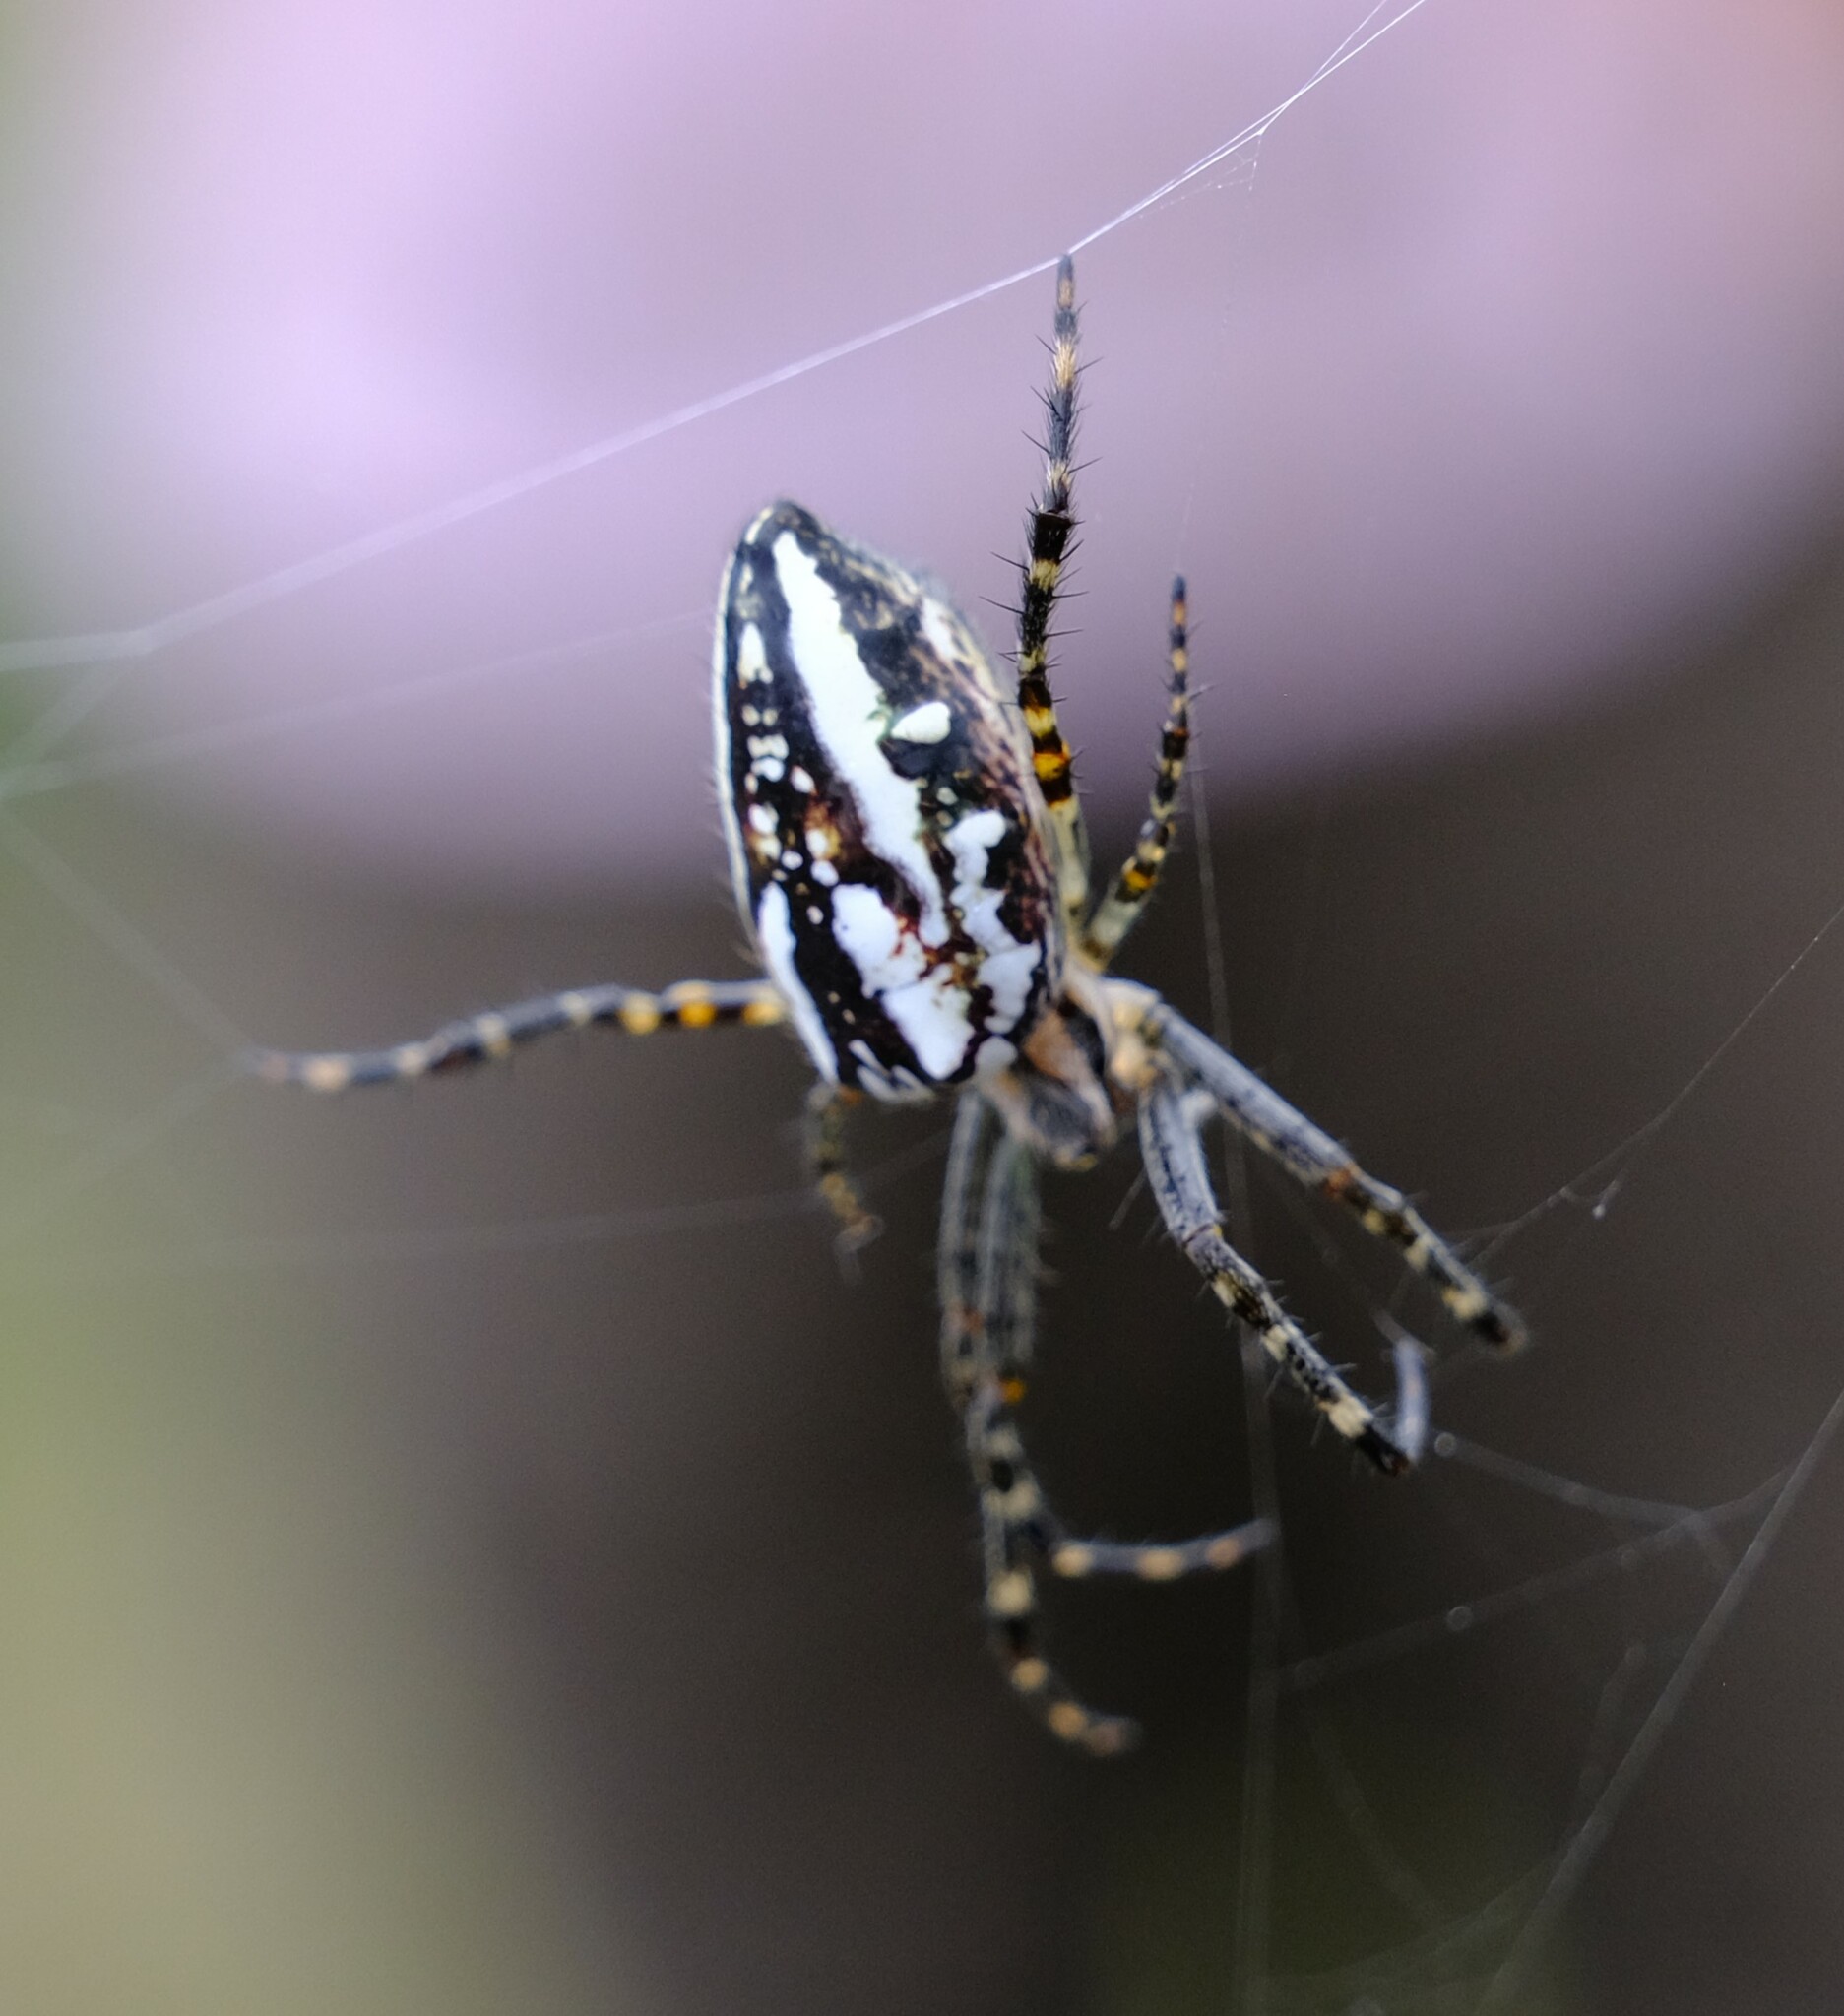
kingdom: Animalia
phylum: Arthropoda
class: Arachnida
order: Araneae
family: Araneidae
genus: Plebs
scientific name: Plebs bradleyi
